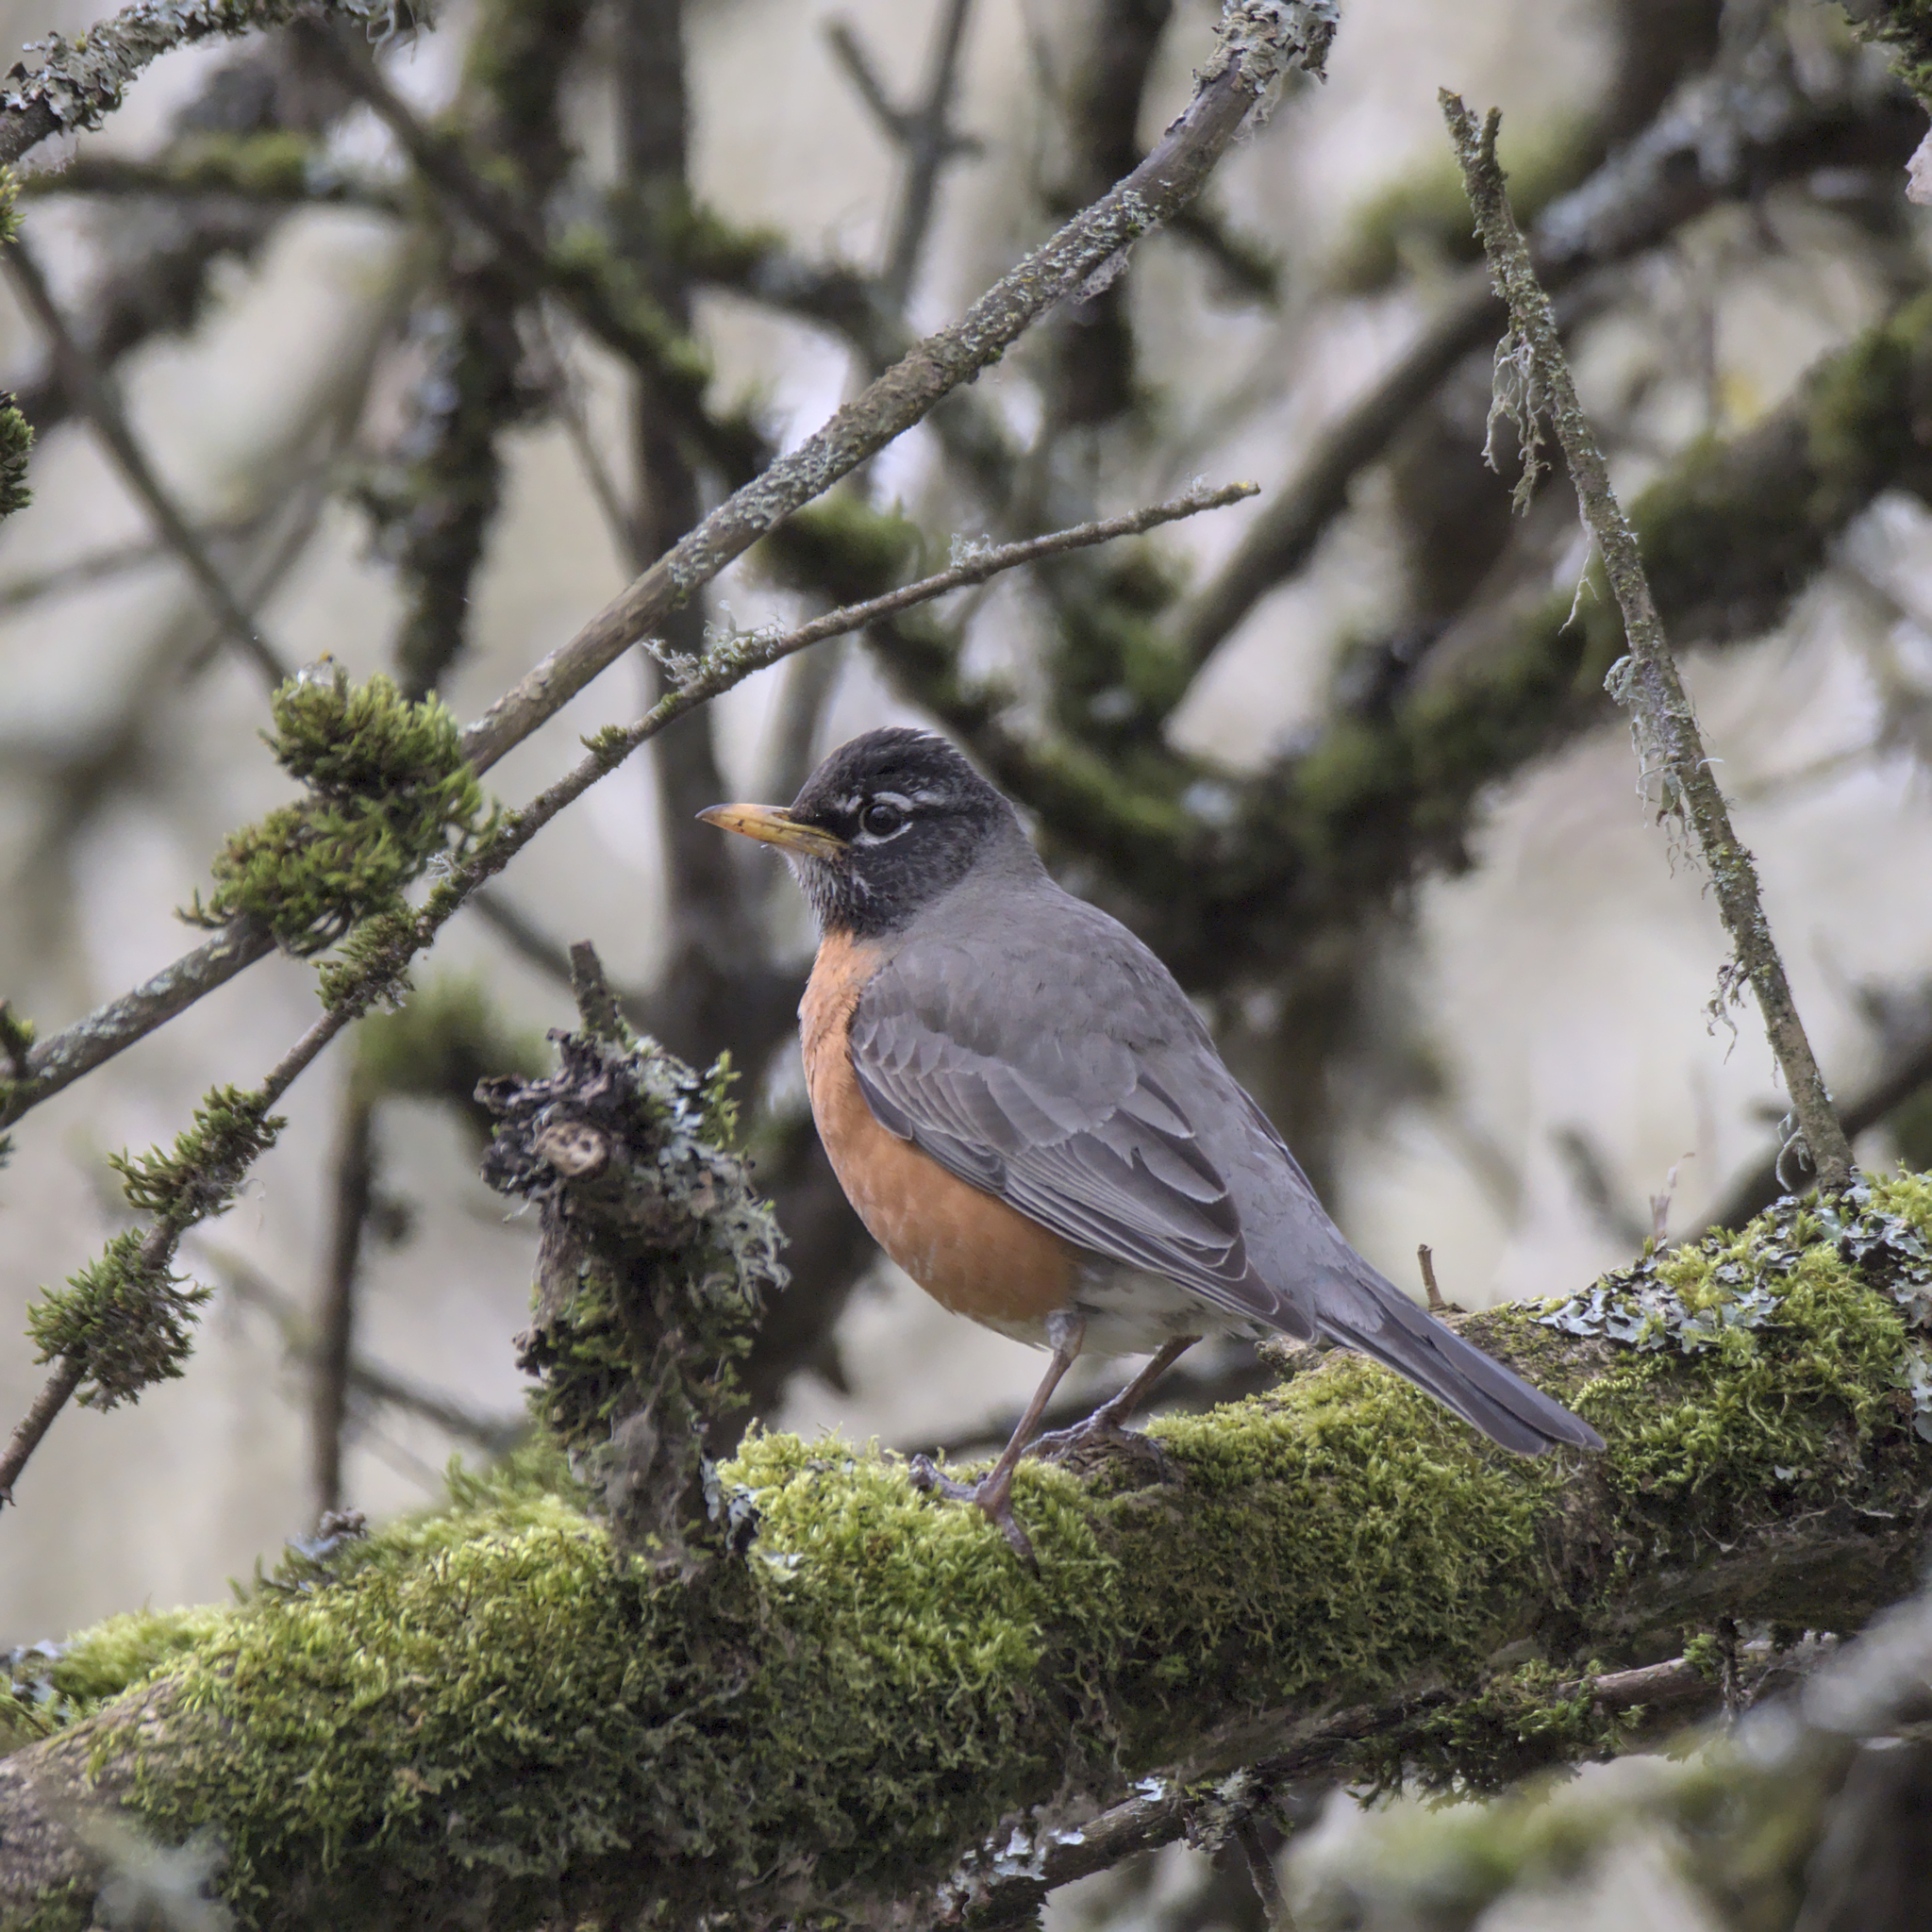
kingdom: Animalia
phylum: Chordata
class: Aves
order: Passeriformes
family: Turdidae
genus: Turdus
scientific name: Turdus migratorius
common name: American robin
